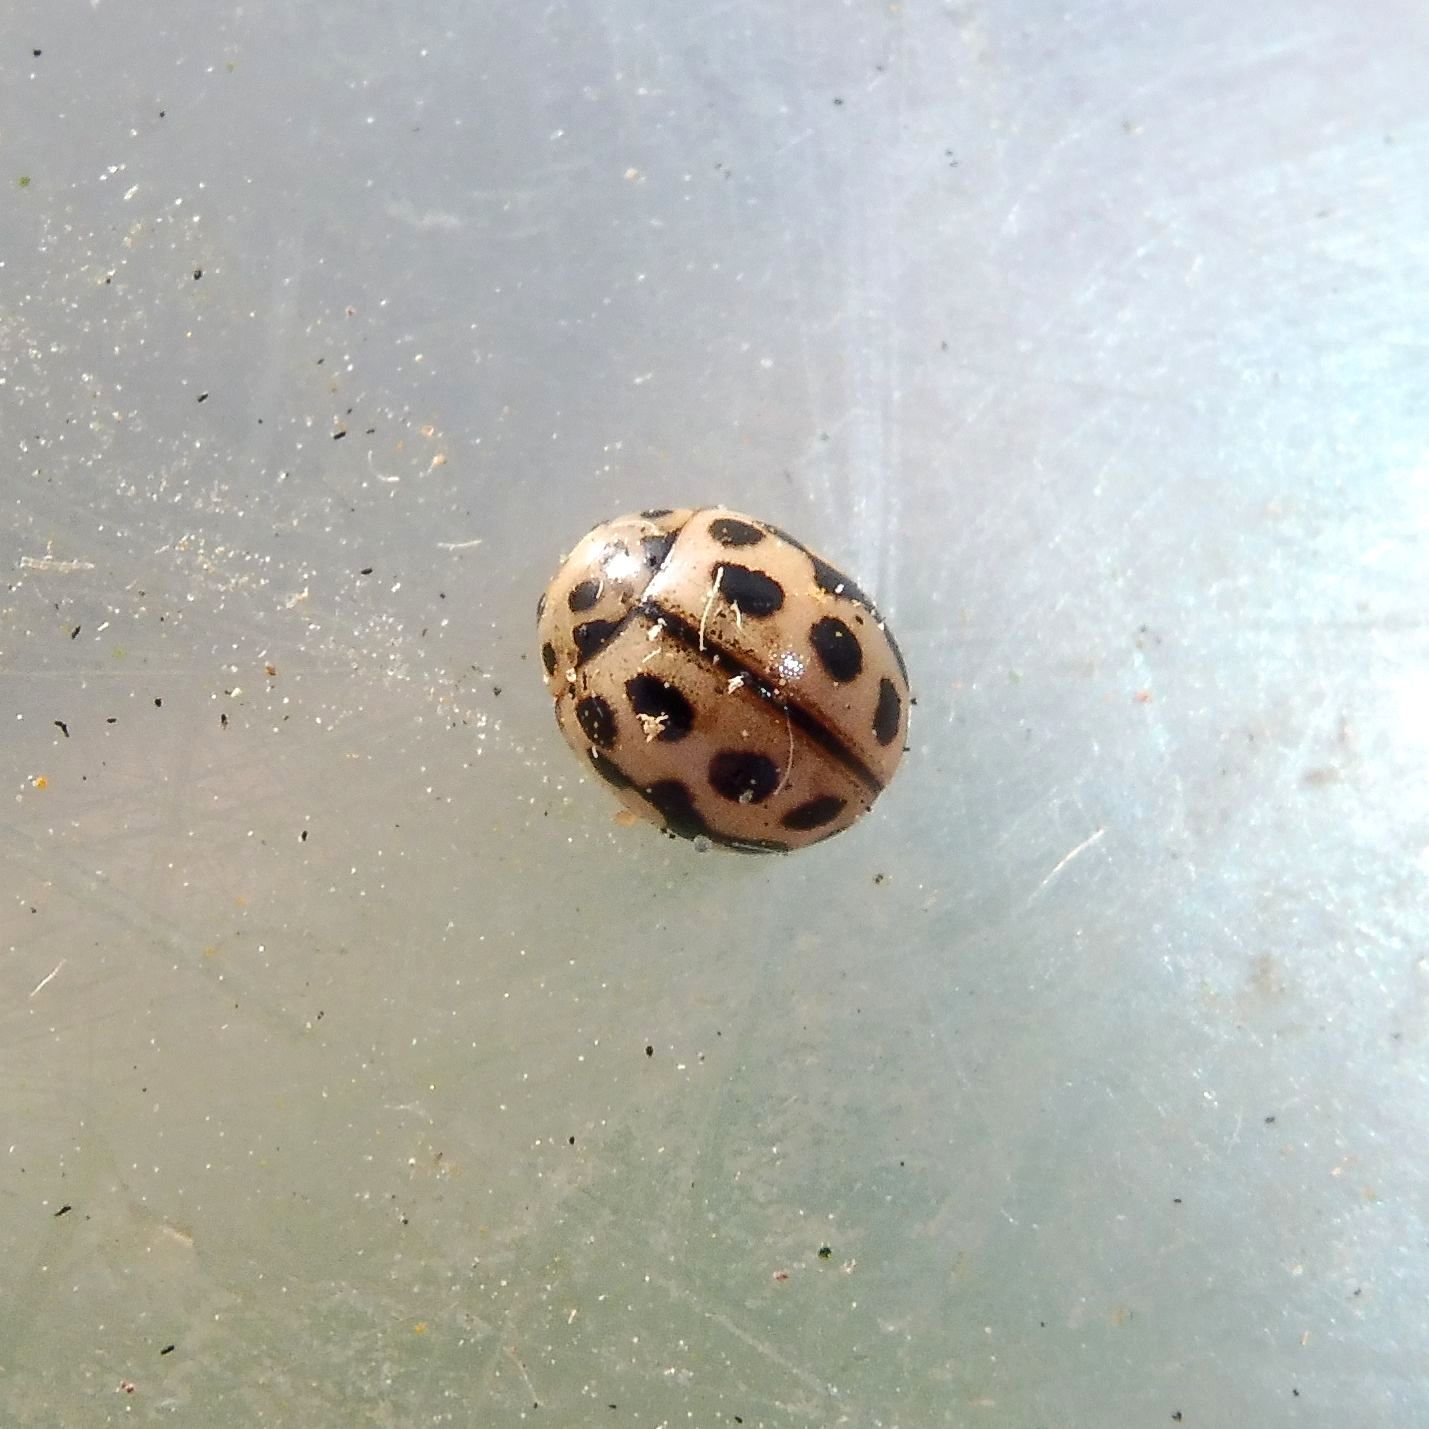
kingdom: Animalia
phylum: Arthropoda
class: Insecta
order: Coleoptera
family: Coccinellidae
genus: Tytthaspis
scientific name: Tytthaspis sedecimpunctata
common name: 16-spot ladybird
